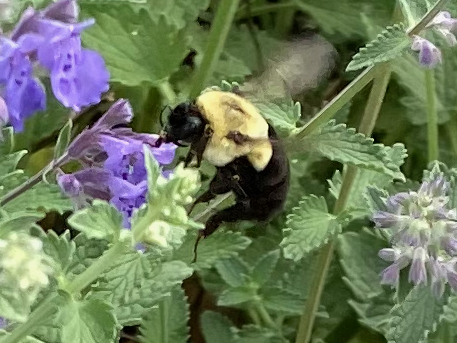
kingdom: Animalia
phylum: Arthropoda
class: Insecta
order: Hymenoptera
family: Apidae
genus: Bombus
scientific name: Bombus impatiens
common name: Common eastern bumble bee
